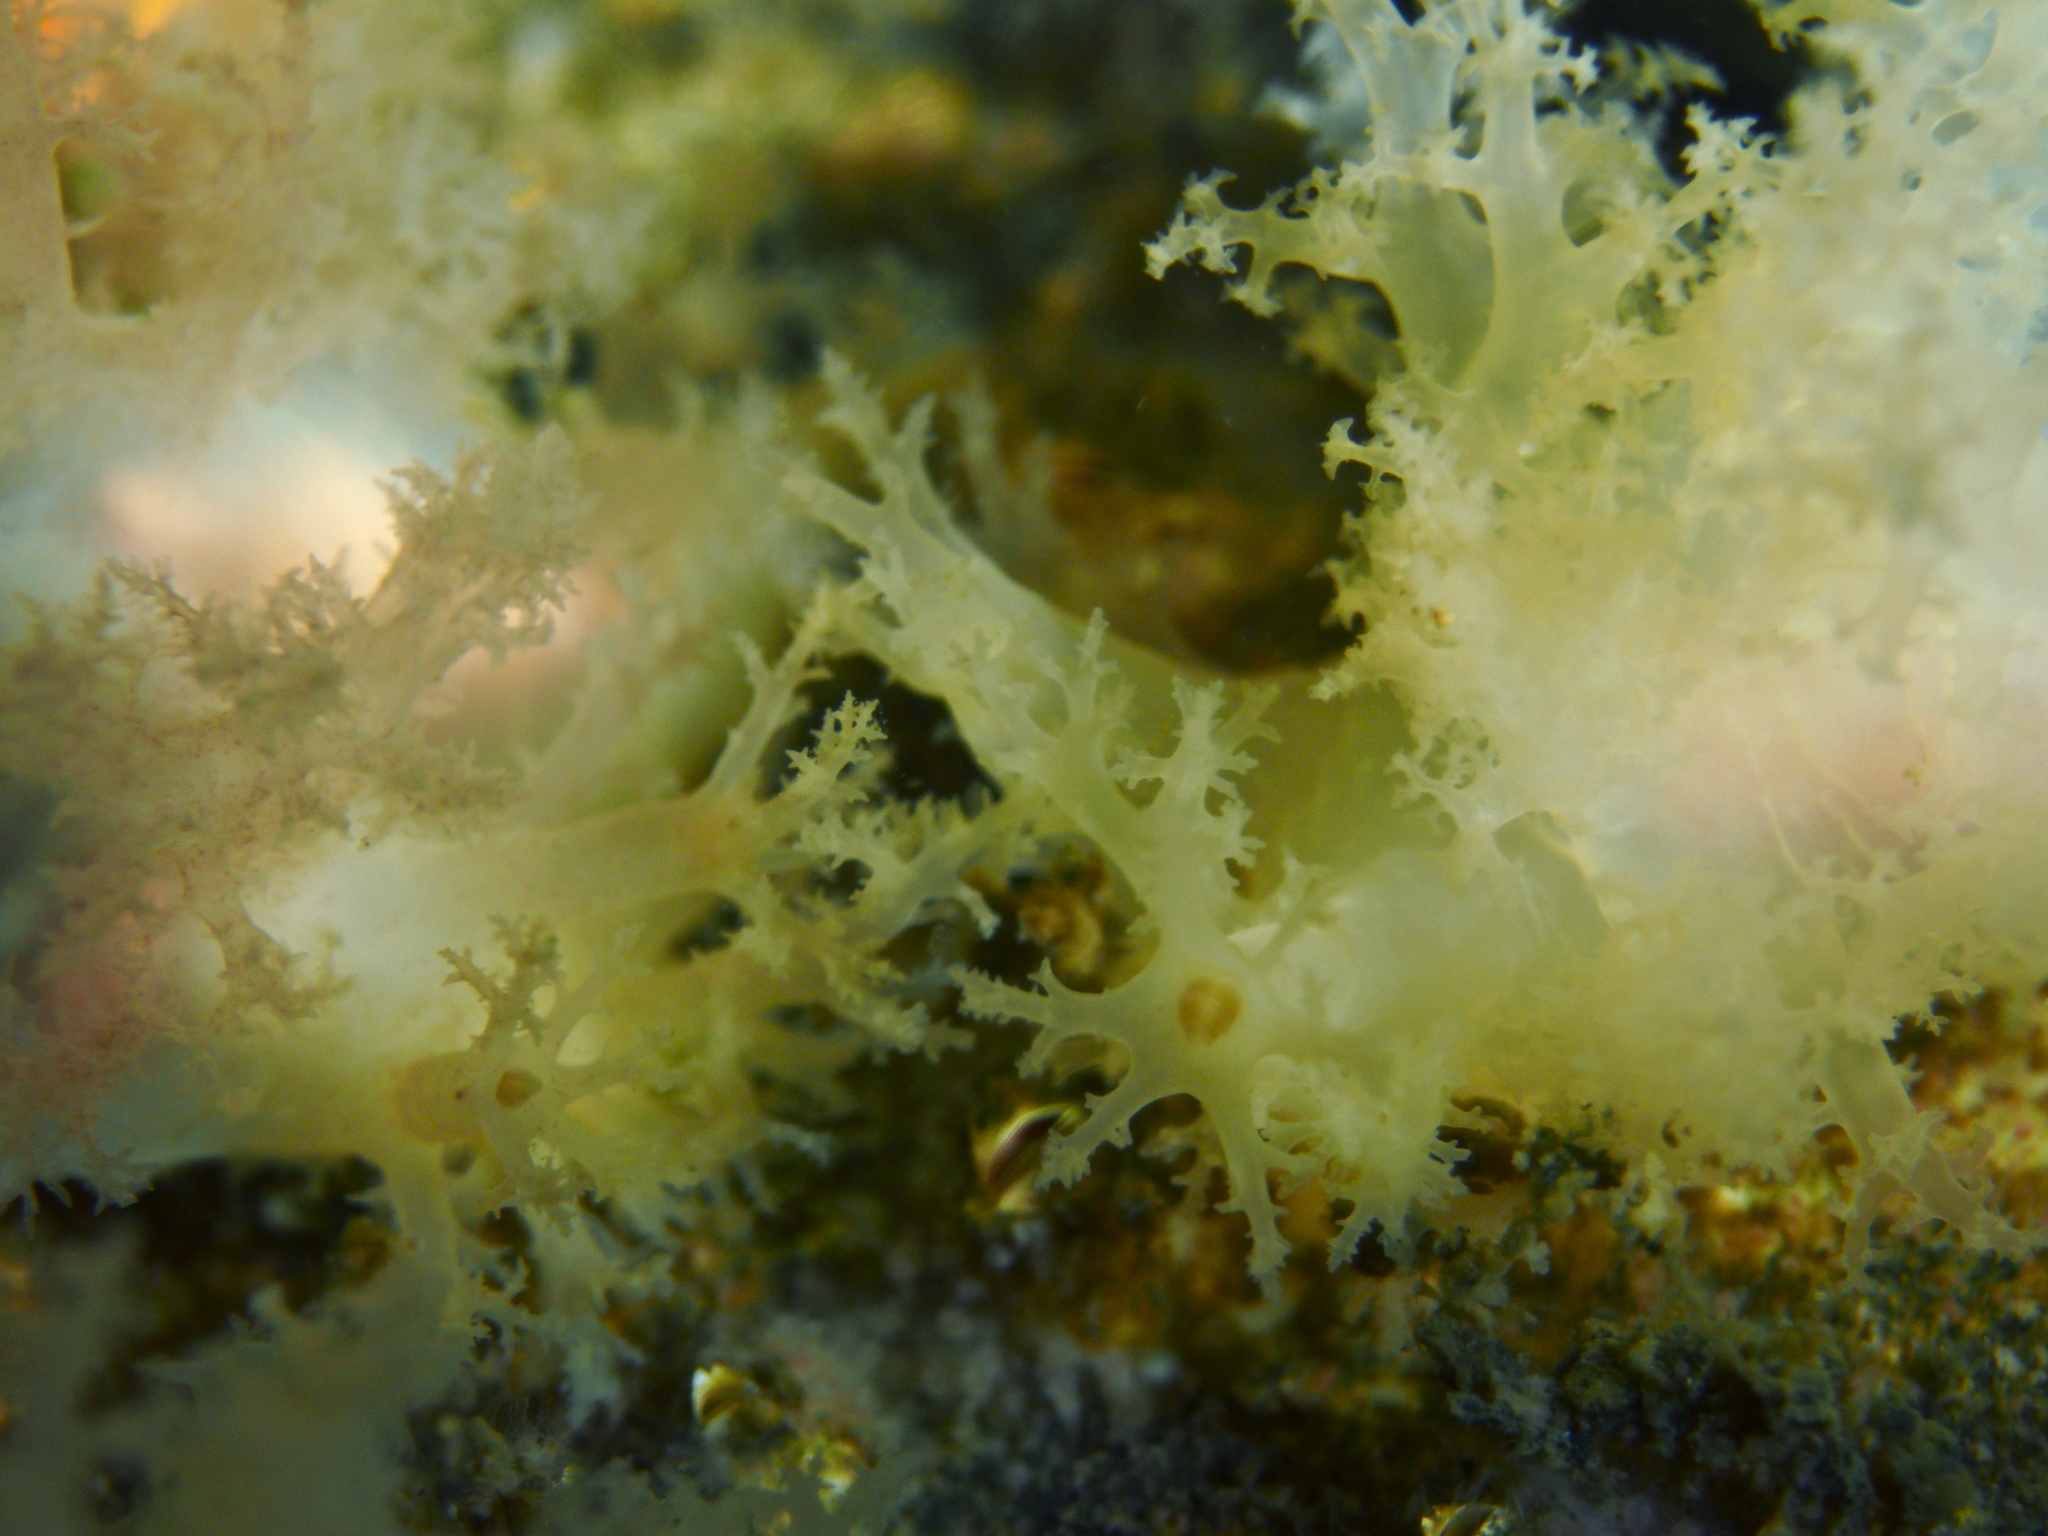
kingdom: Animalia
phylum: Mollusca
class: Gastropoda
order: Nudibranchia
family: Dendronotidae
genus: Dendronotus
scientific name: Dendronotus lacteus
